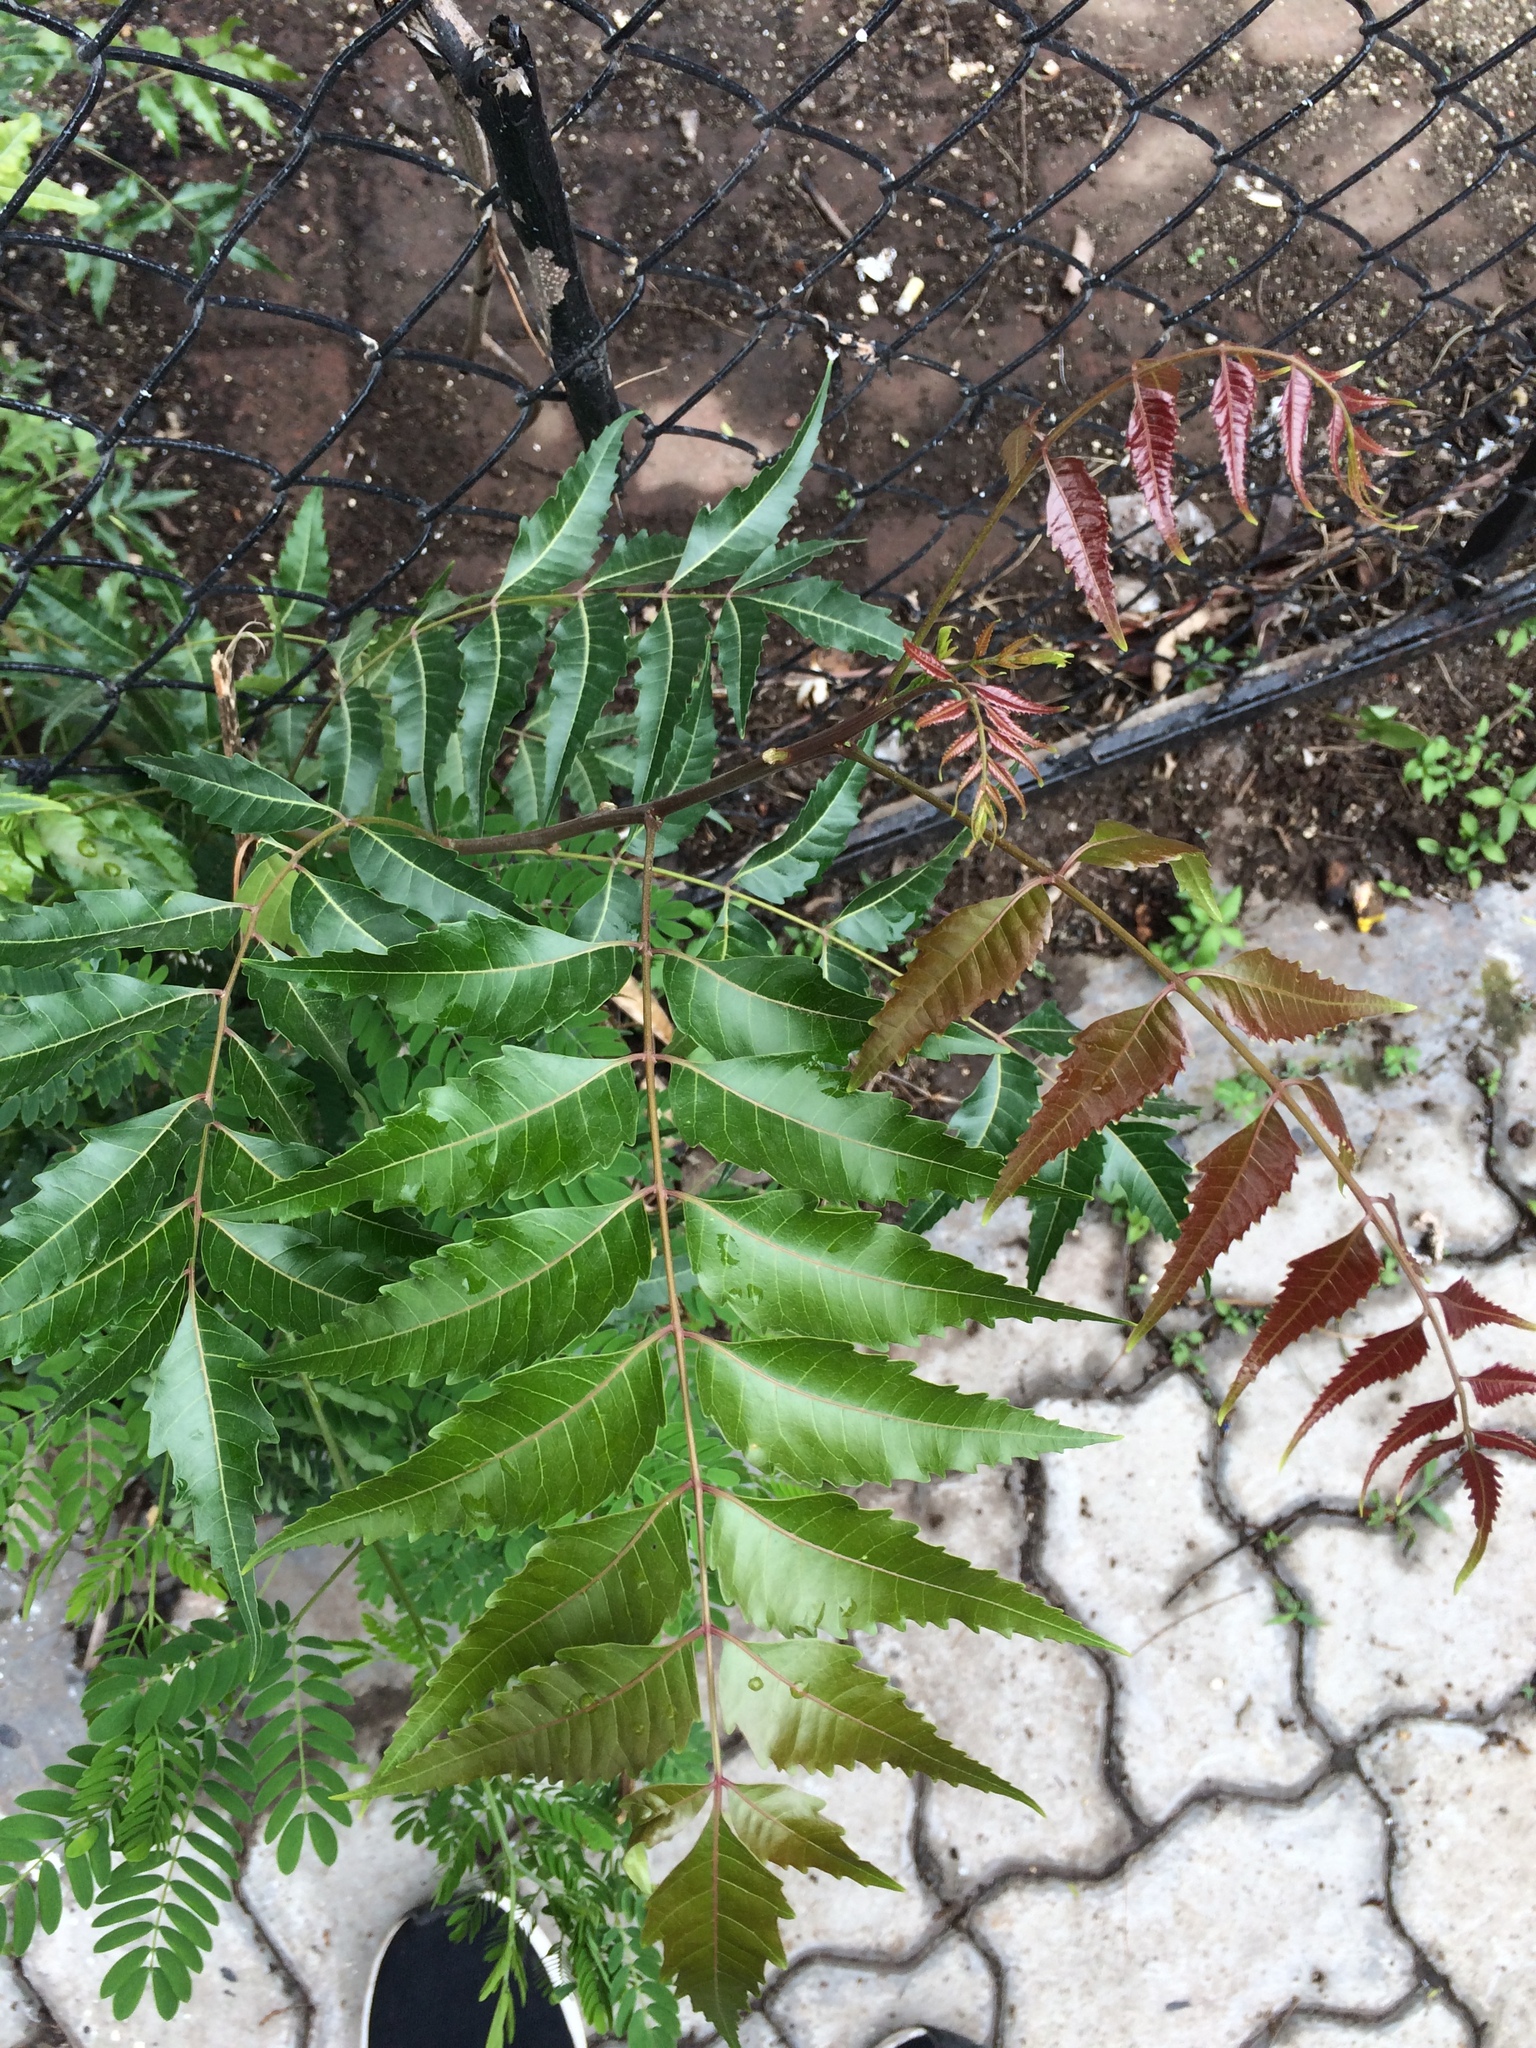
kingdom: Plantae
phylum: Tracheophyta
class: Magnoliopsida
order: Sapindales
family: Meliaceae
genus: Azadirachta
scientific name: Azadirachta indica
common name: Neem
